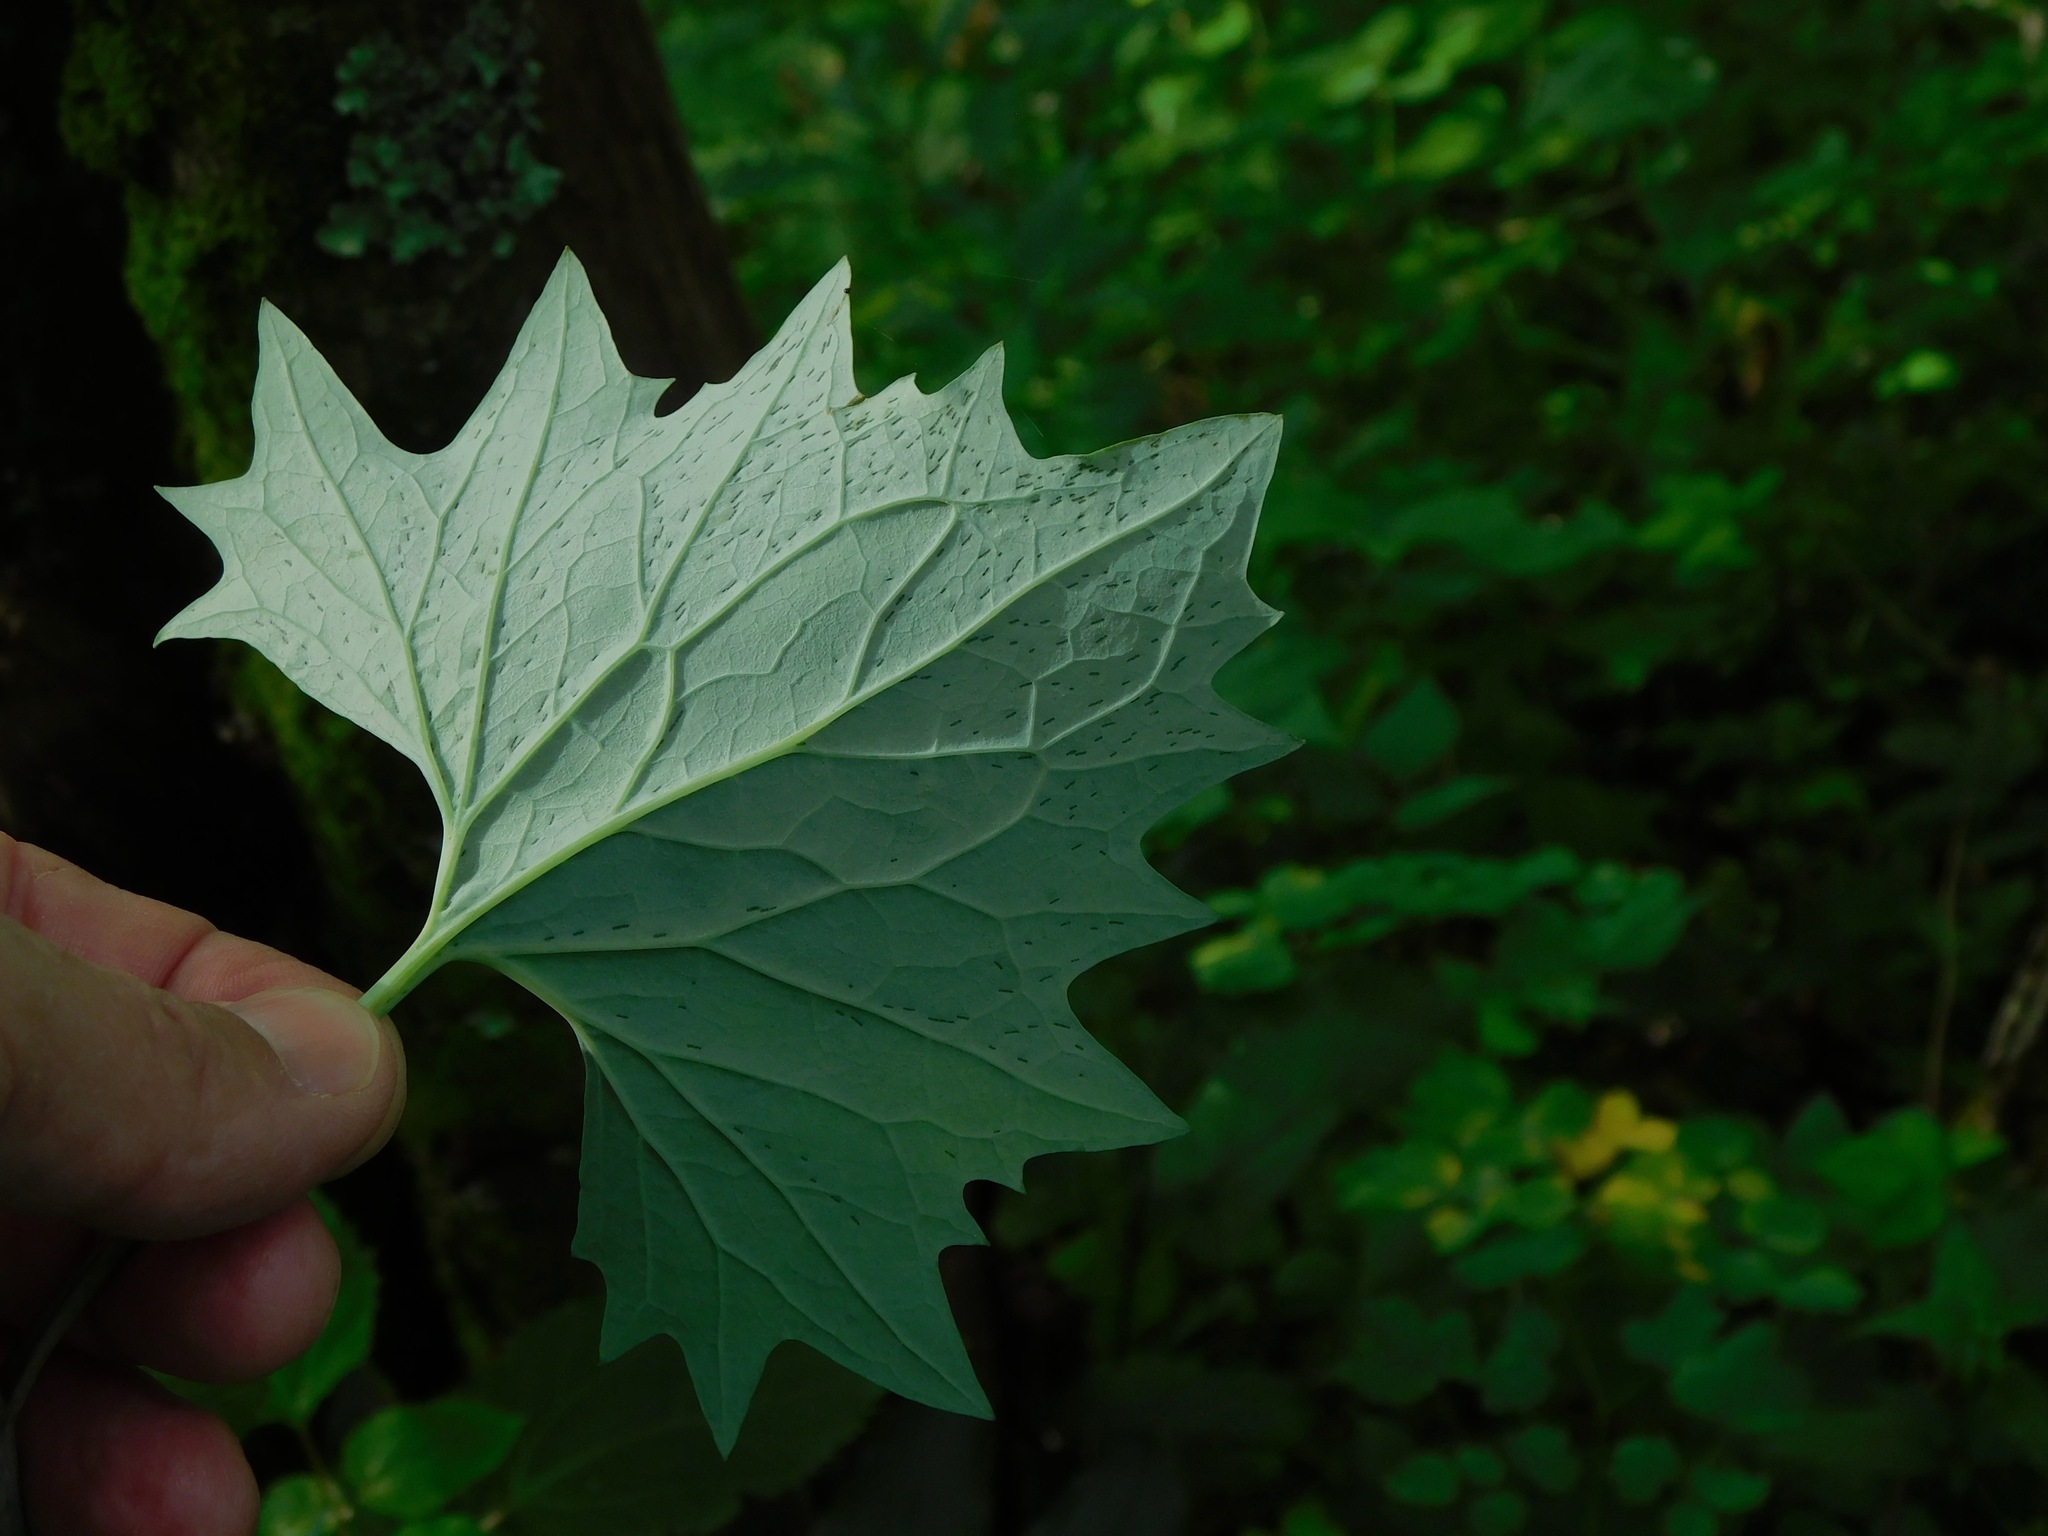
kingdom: Plantae
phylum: Tracheophyta
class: Magnoliopsida
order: Asterales
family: Asteraceae
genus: Arnoglossum
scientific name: Arnoglossum atriplicifolium
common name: Pale indian-plantain
